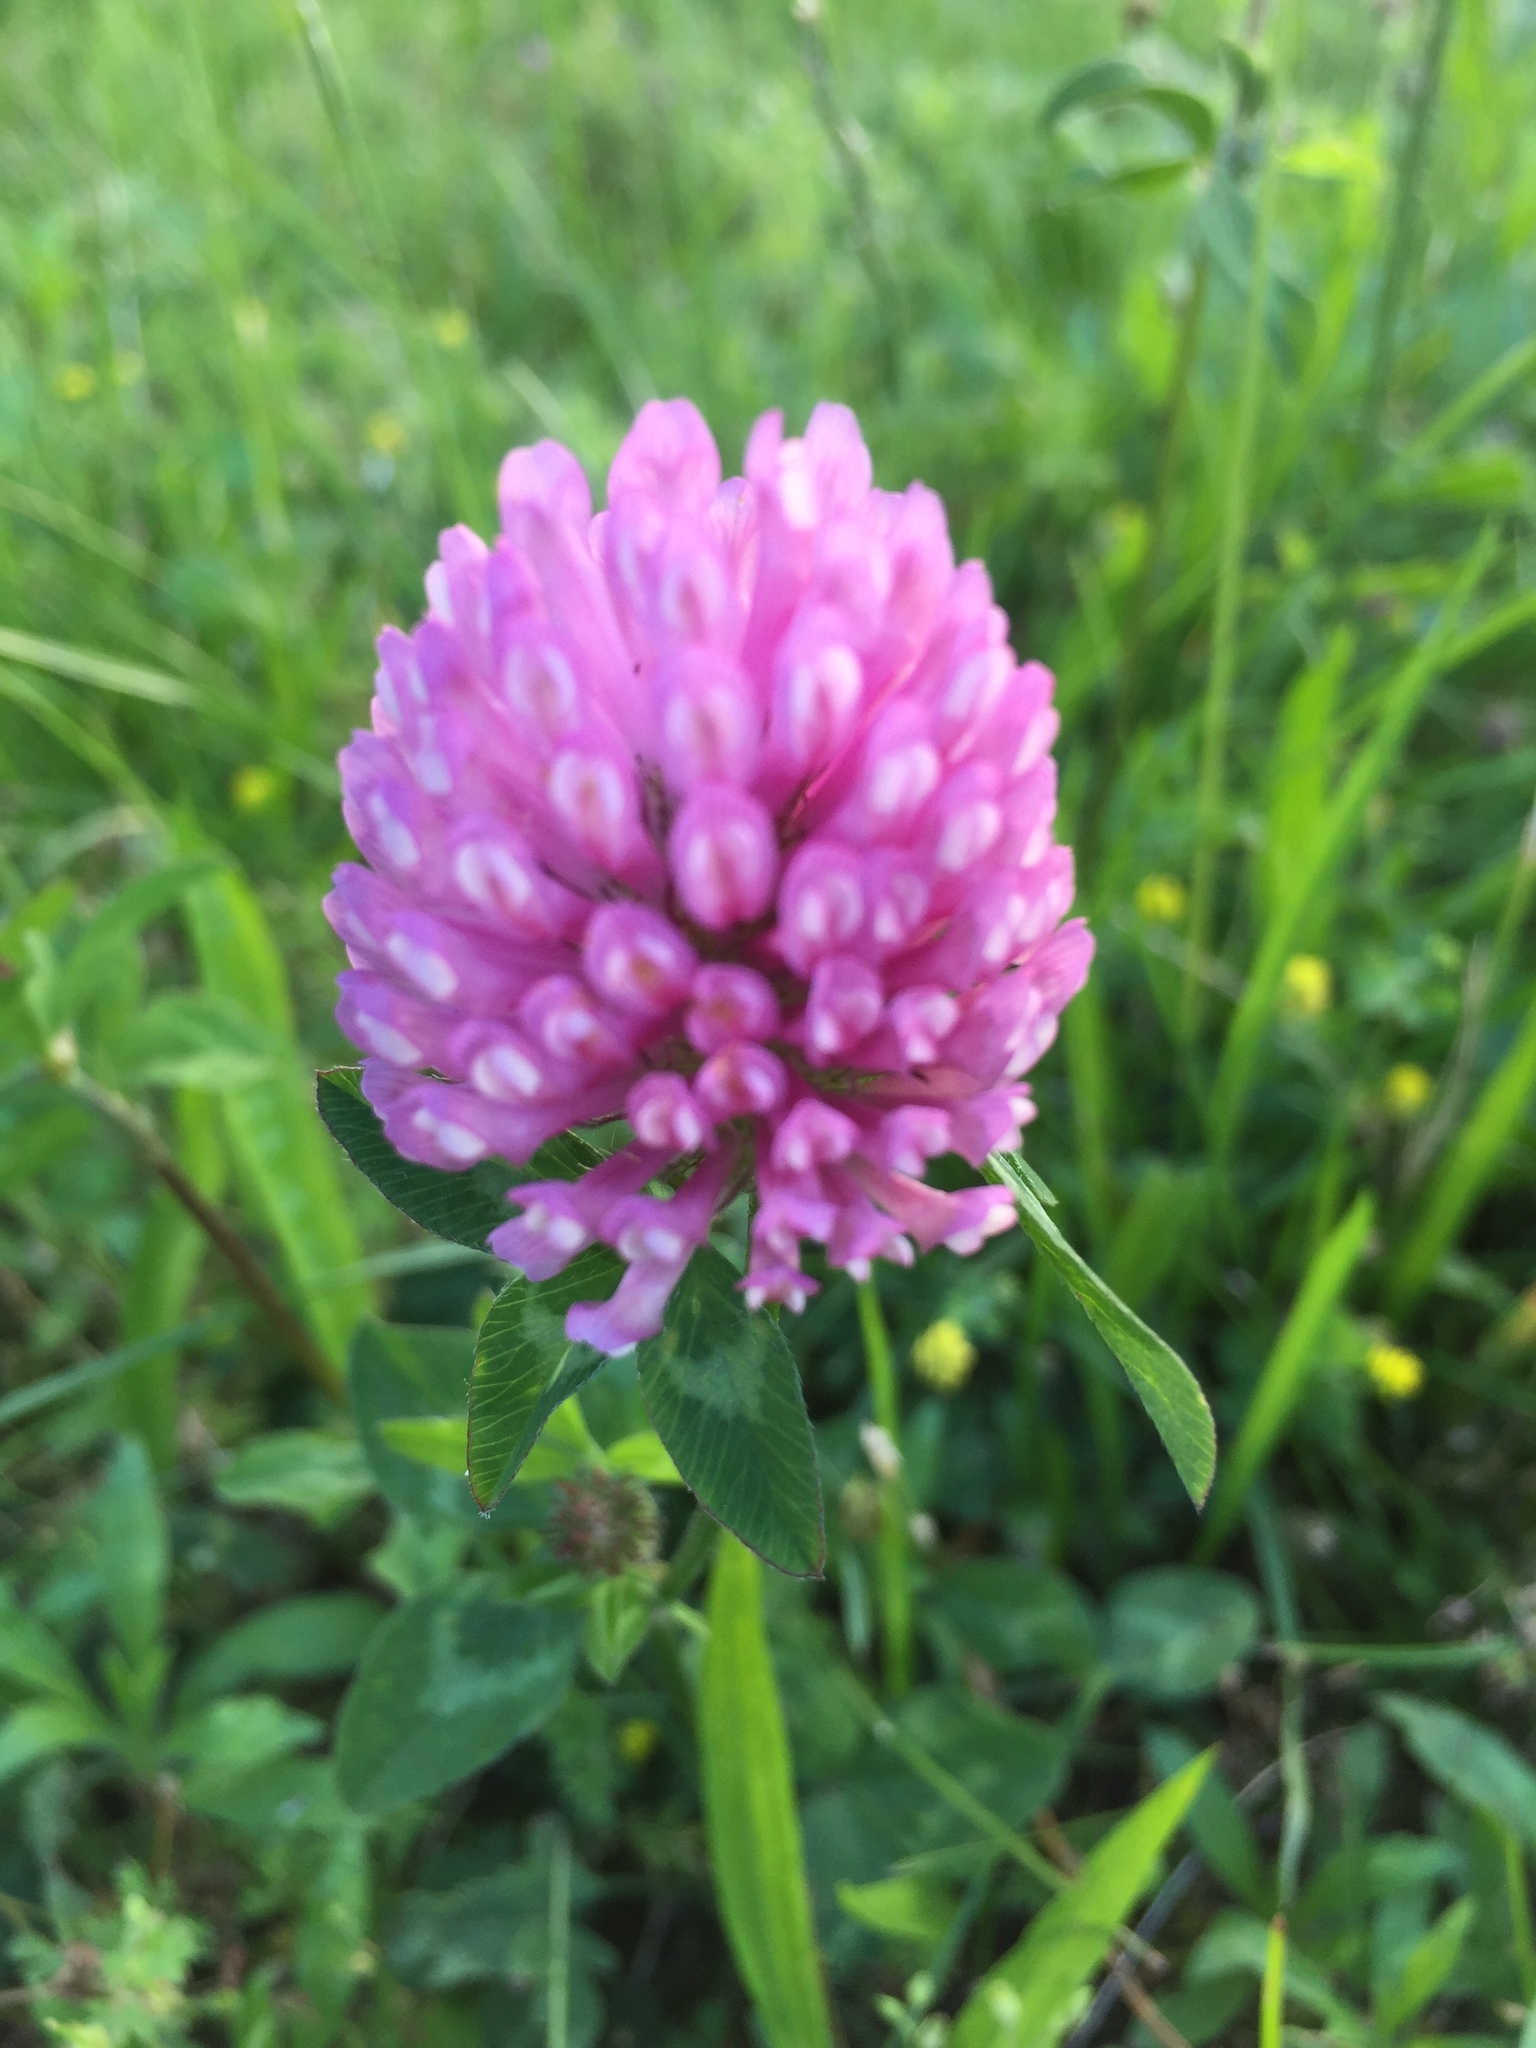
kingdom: Plantae
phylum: Tracheophyta
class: Magnoliopsida
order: Fabales
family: Fabaceae
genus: Trifolium
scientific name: Trifolium pratense
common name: Red clover
